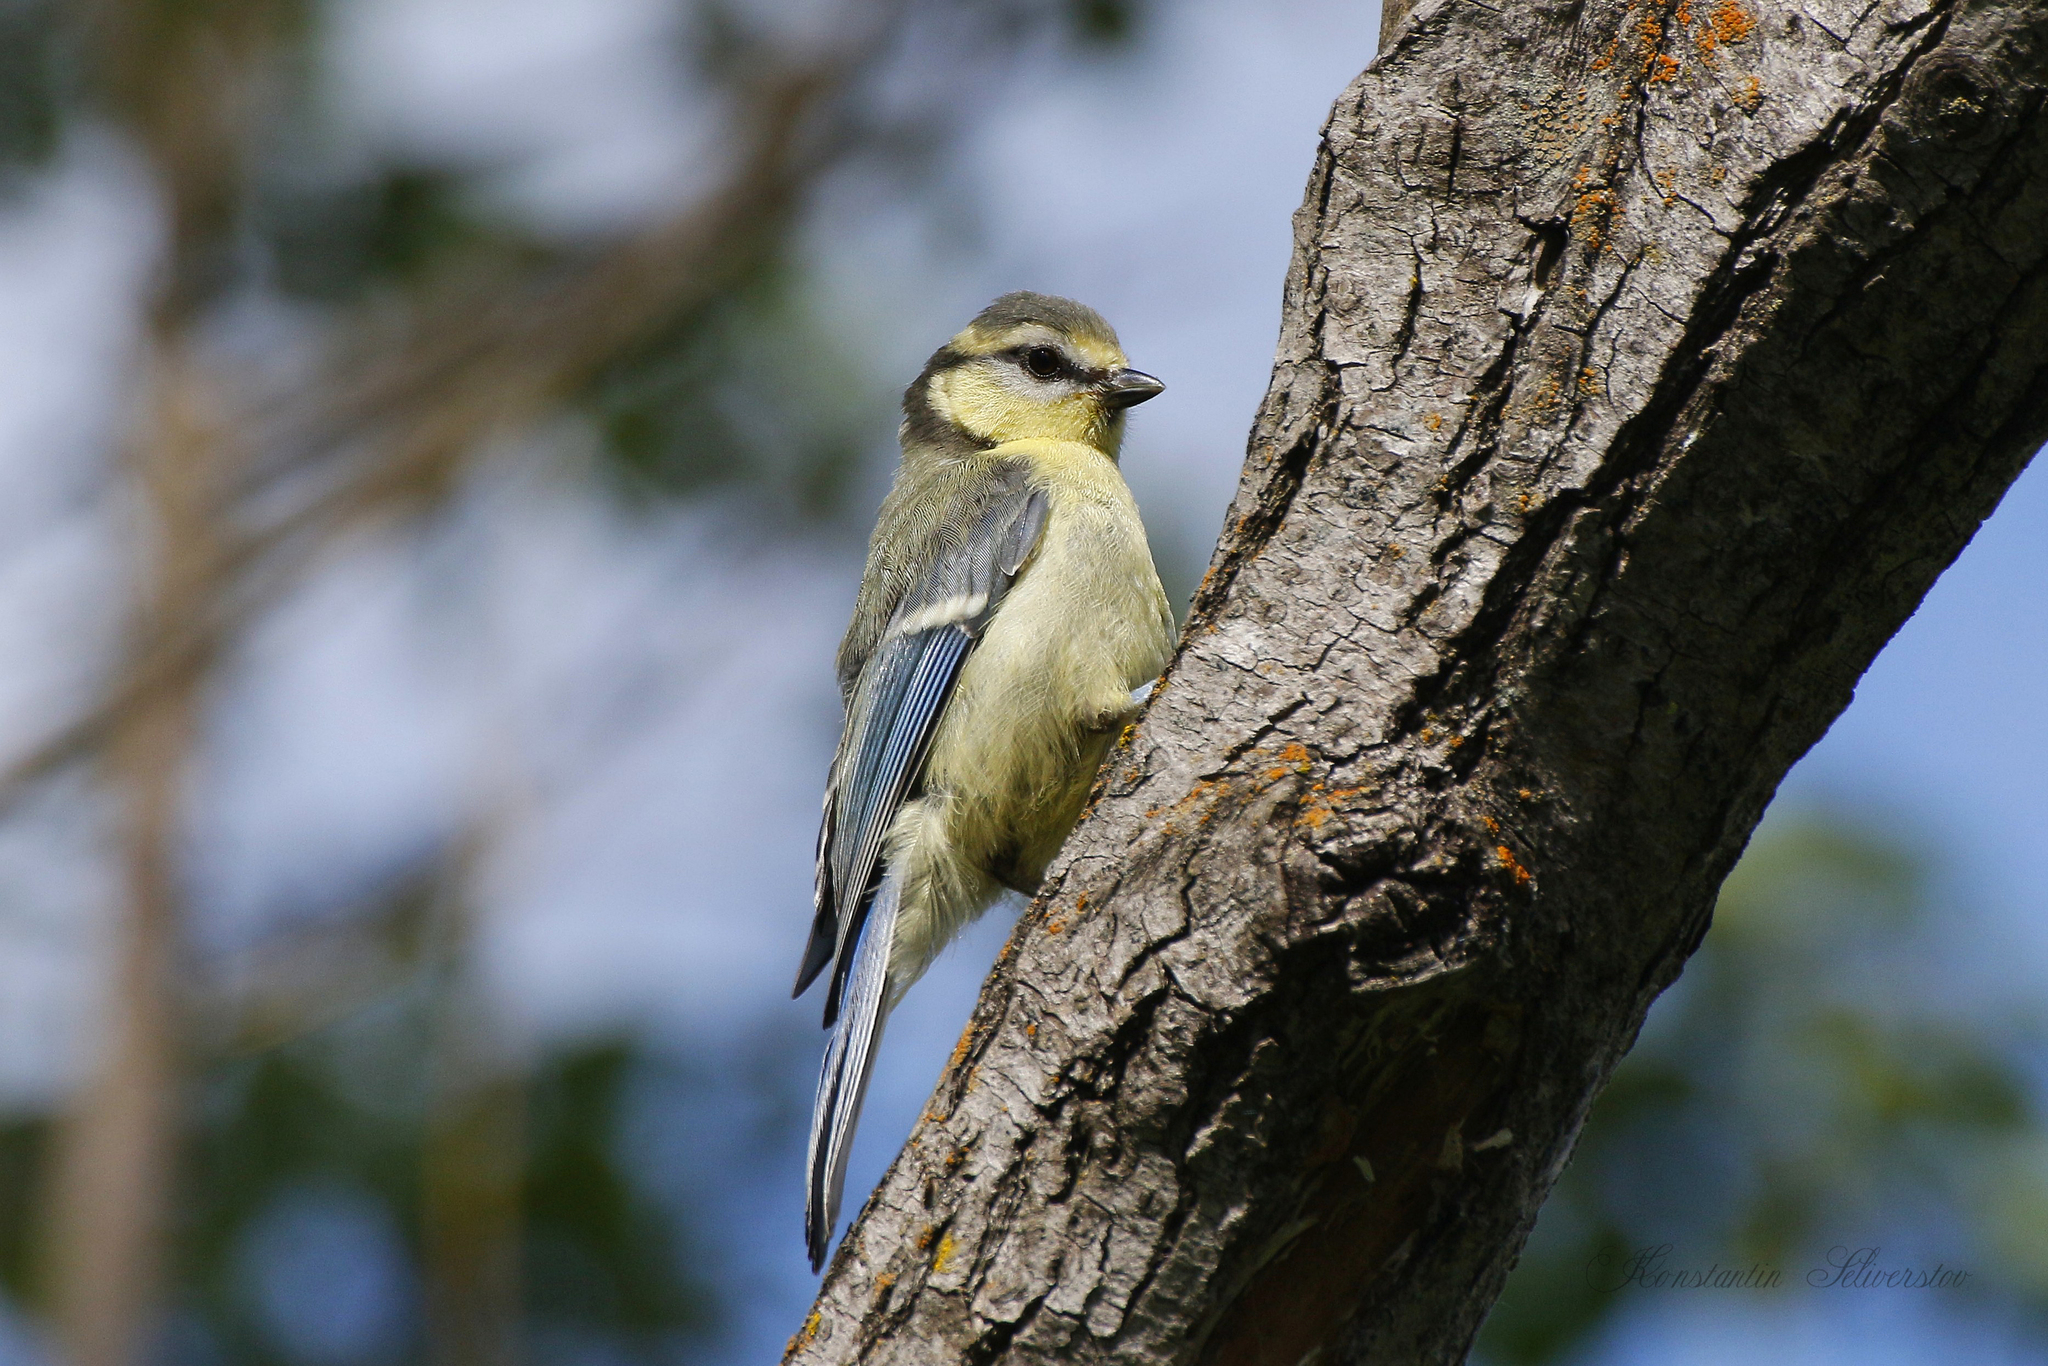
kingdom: Animalia
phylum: Chordata
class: Aves
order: Passeriformes
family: Paridae
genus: Cyanistes
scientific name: Cyanistes caeruleus
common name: Eurasian blue tit
